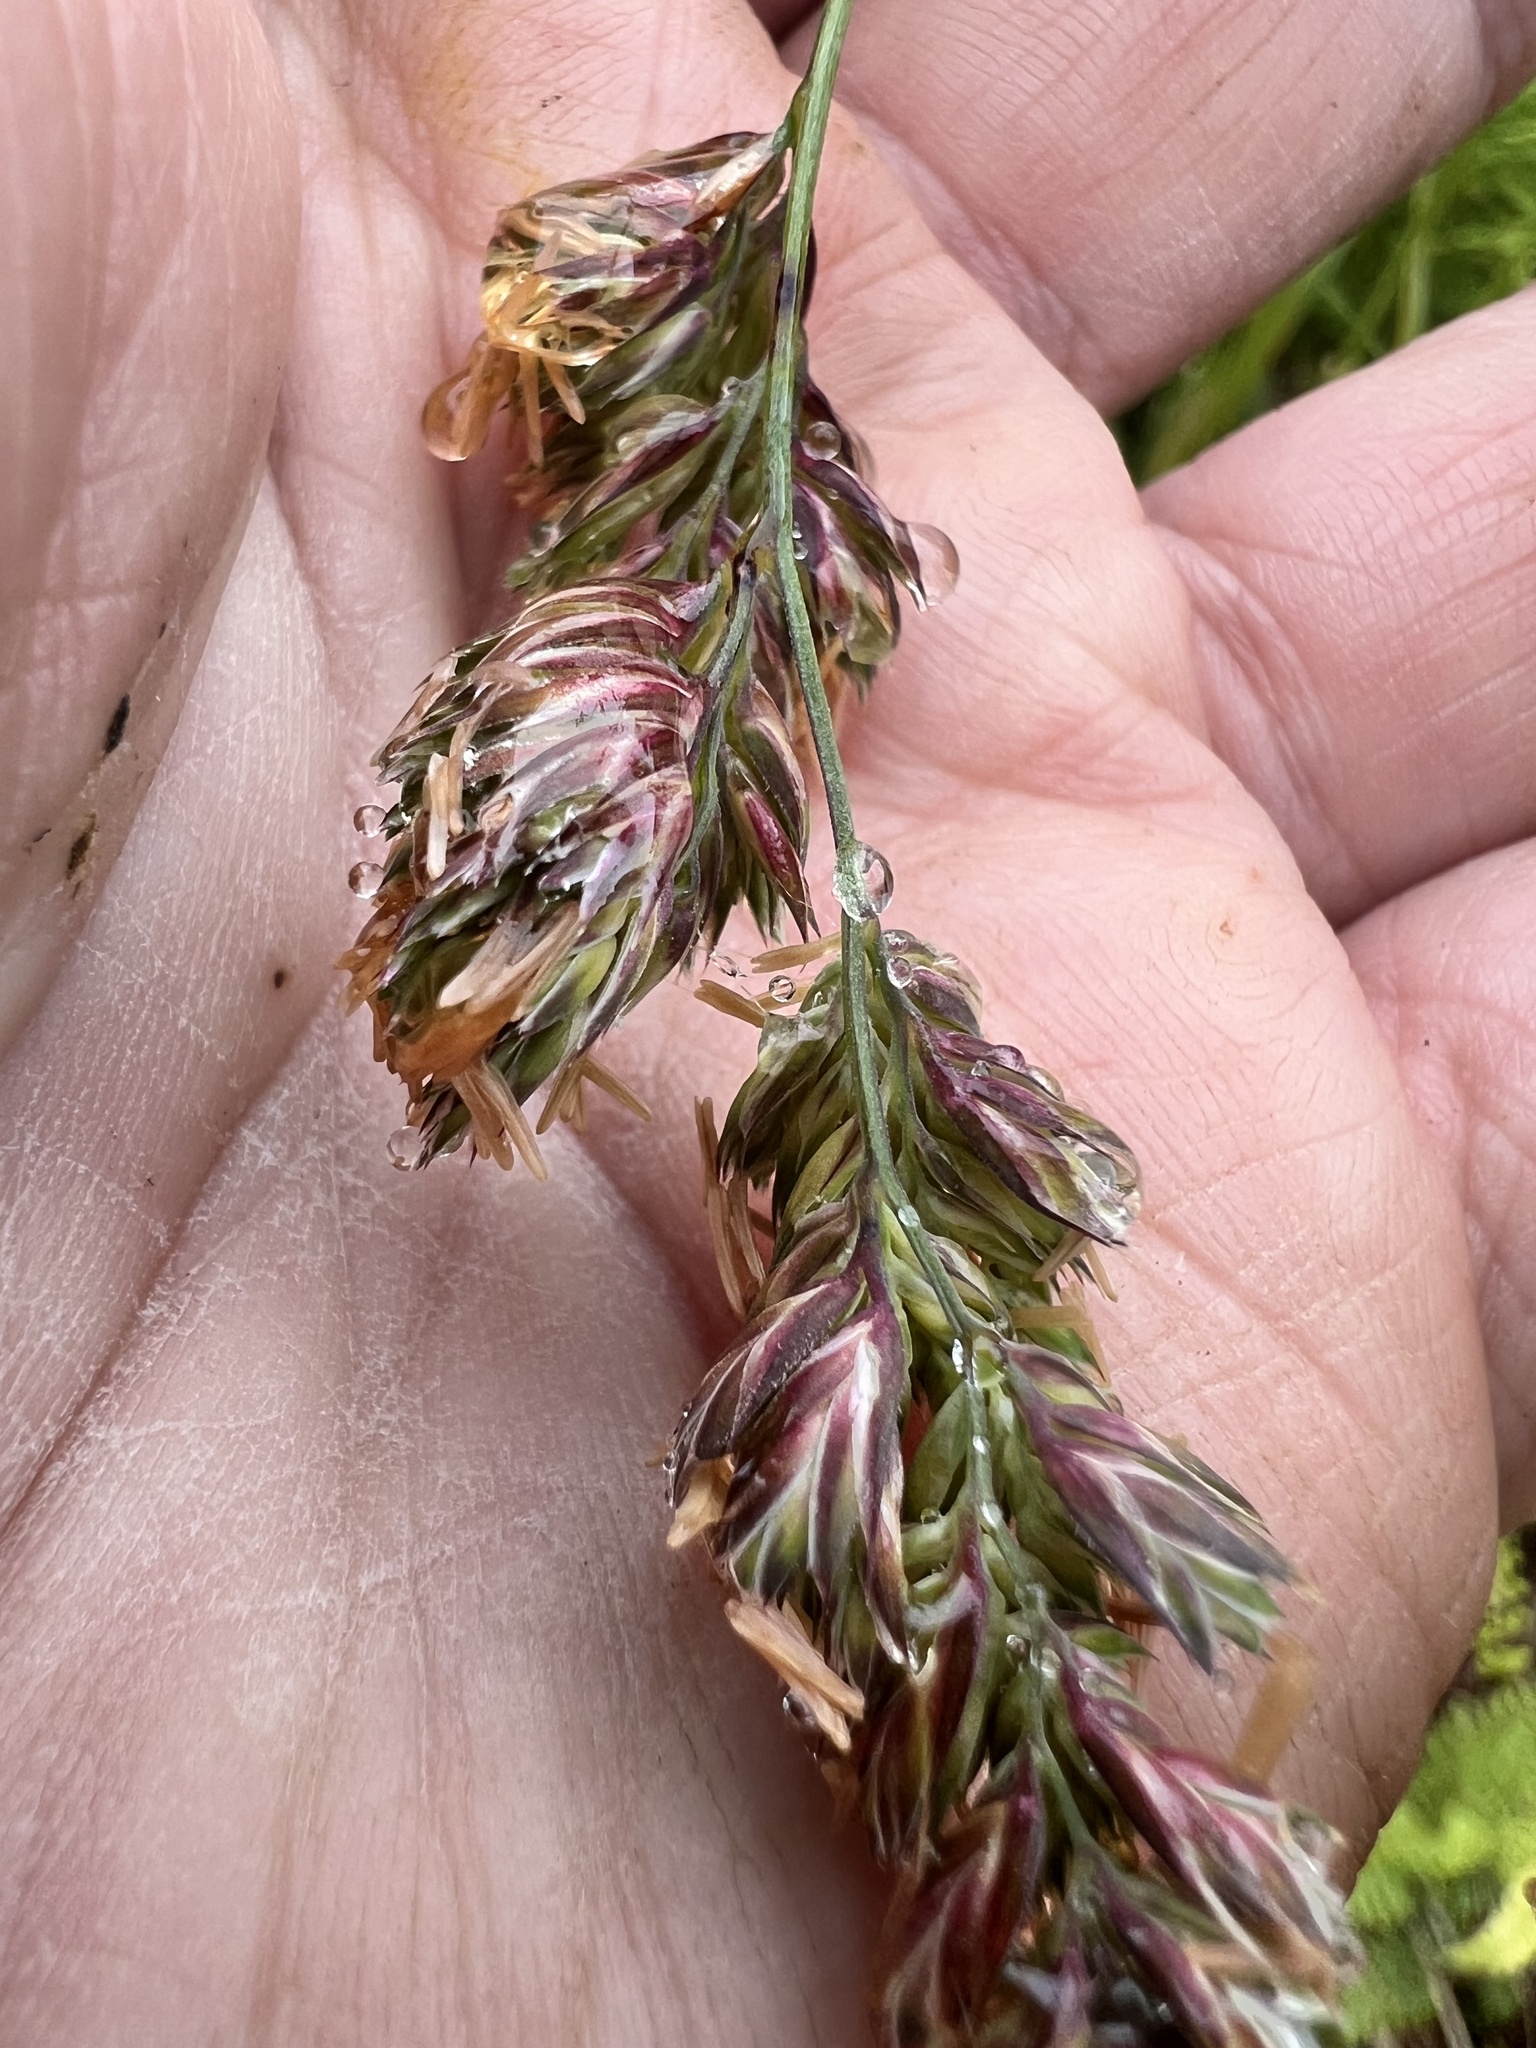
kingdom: Plantae
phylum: Tracheophyta
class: Liliopsida
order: Poales
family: Poaceae
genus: Dactylis
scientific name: Dactylis glomerata
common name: Orchardgrass
